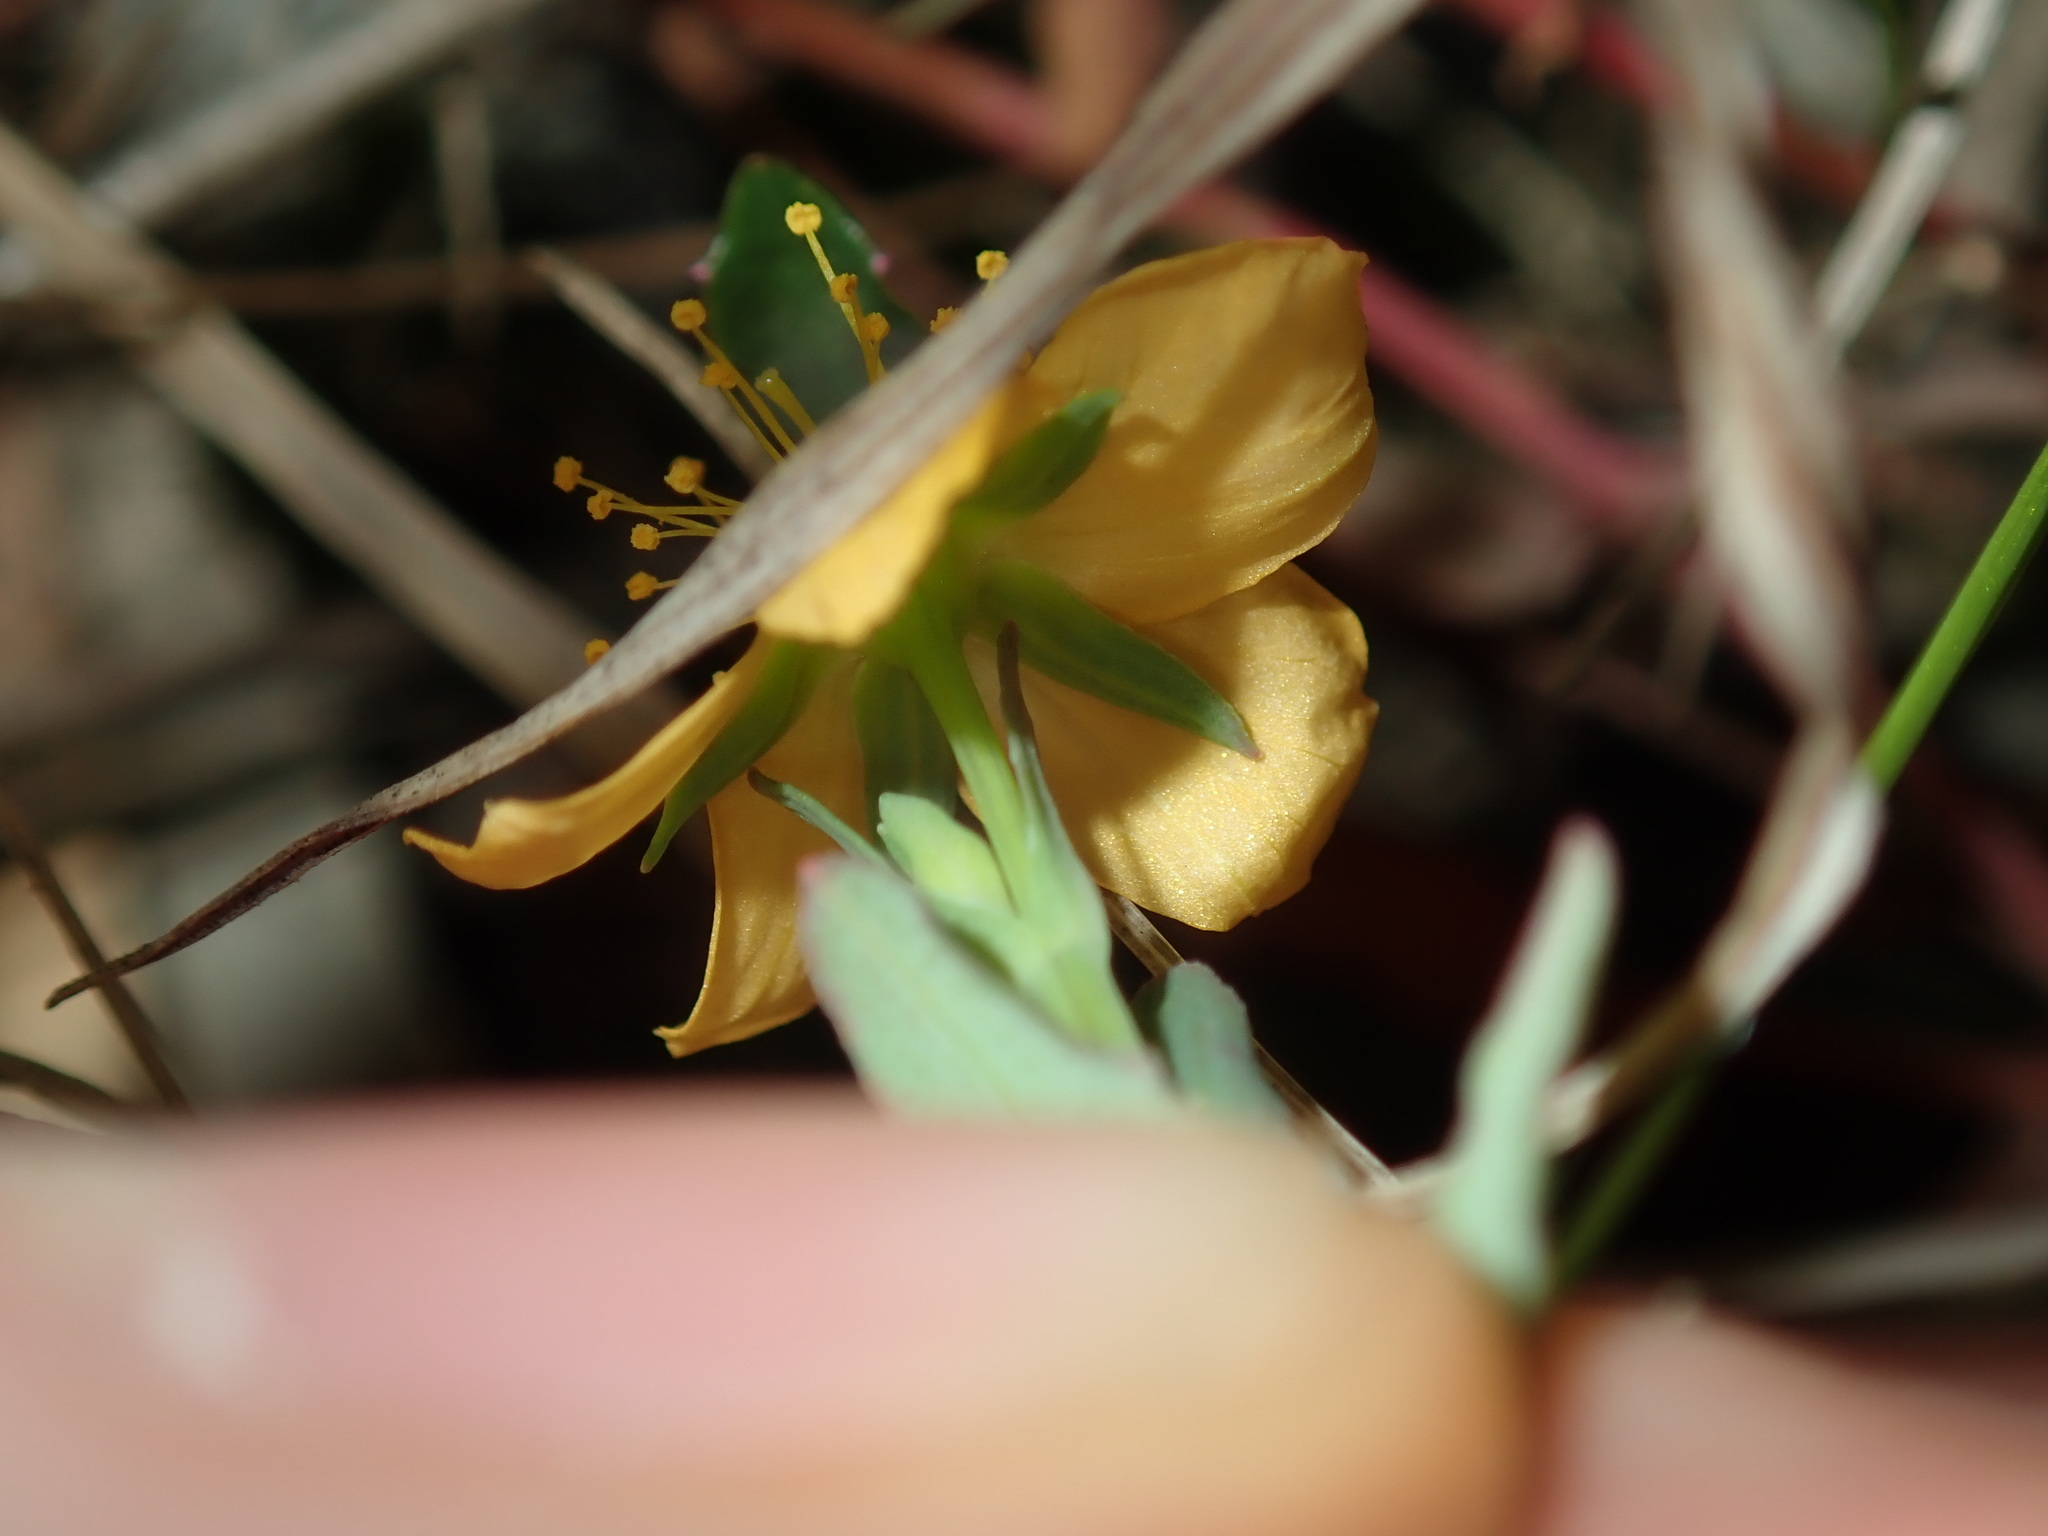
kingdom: Plantae
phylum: Tracheophyta
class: Magnoliopsida
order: Malpighiales
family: Hypericaceae
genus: Hypericum
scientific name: Hypericum gramineum
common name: Grassy st. johnswort
